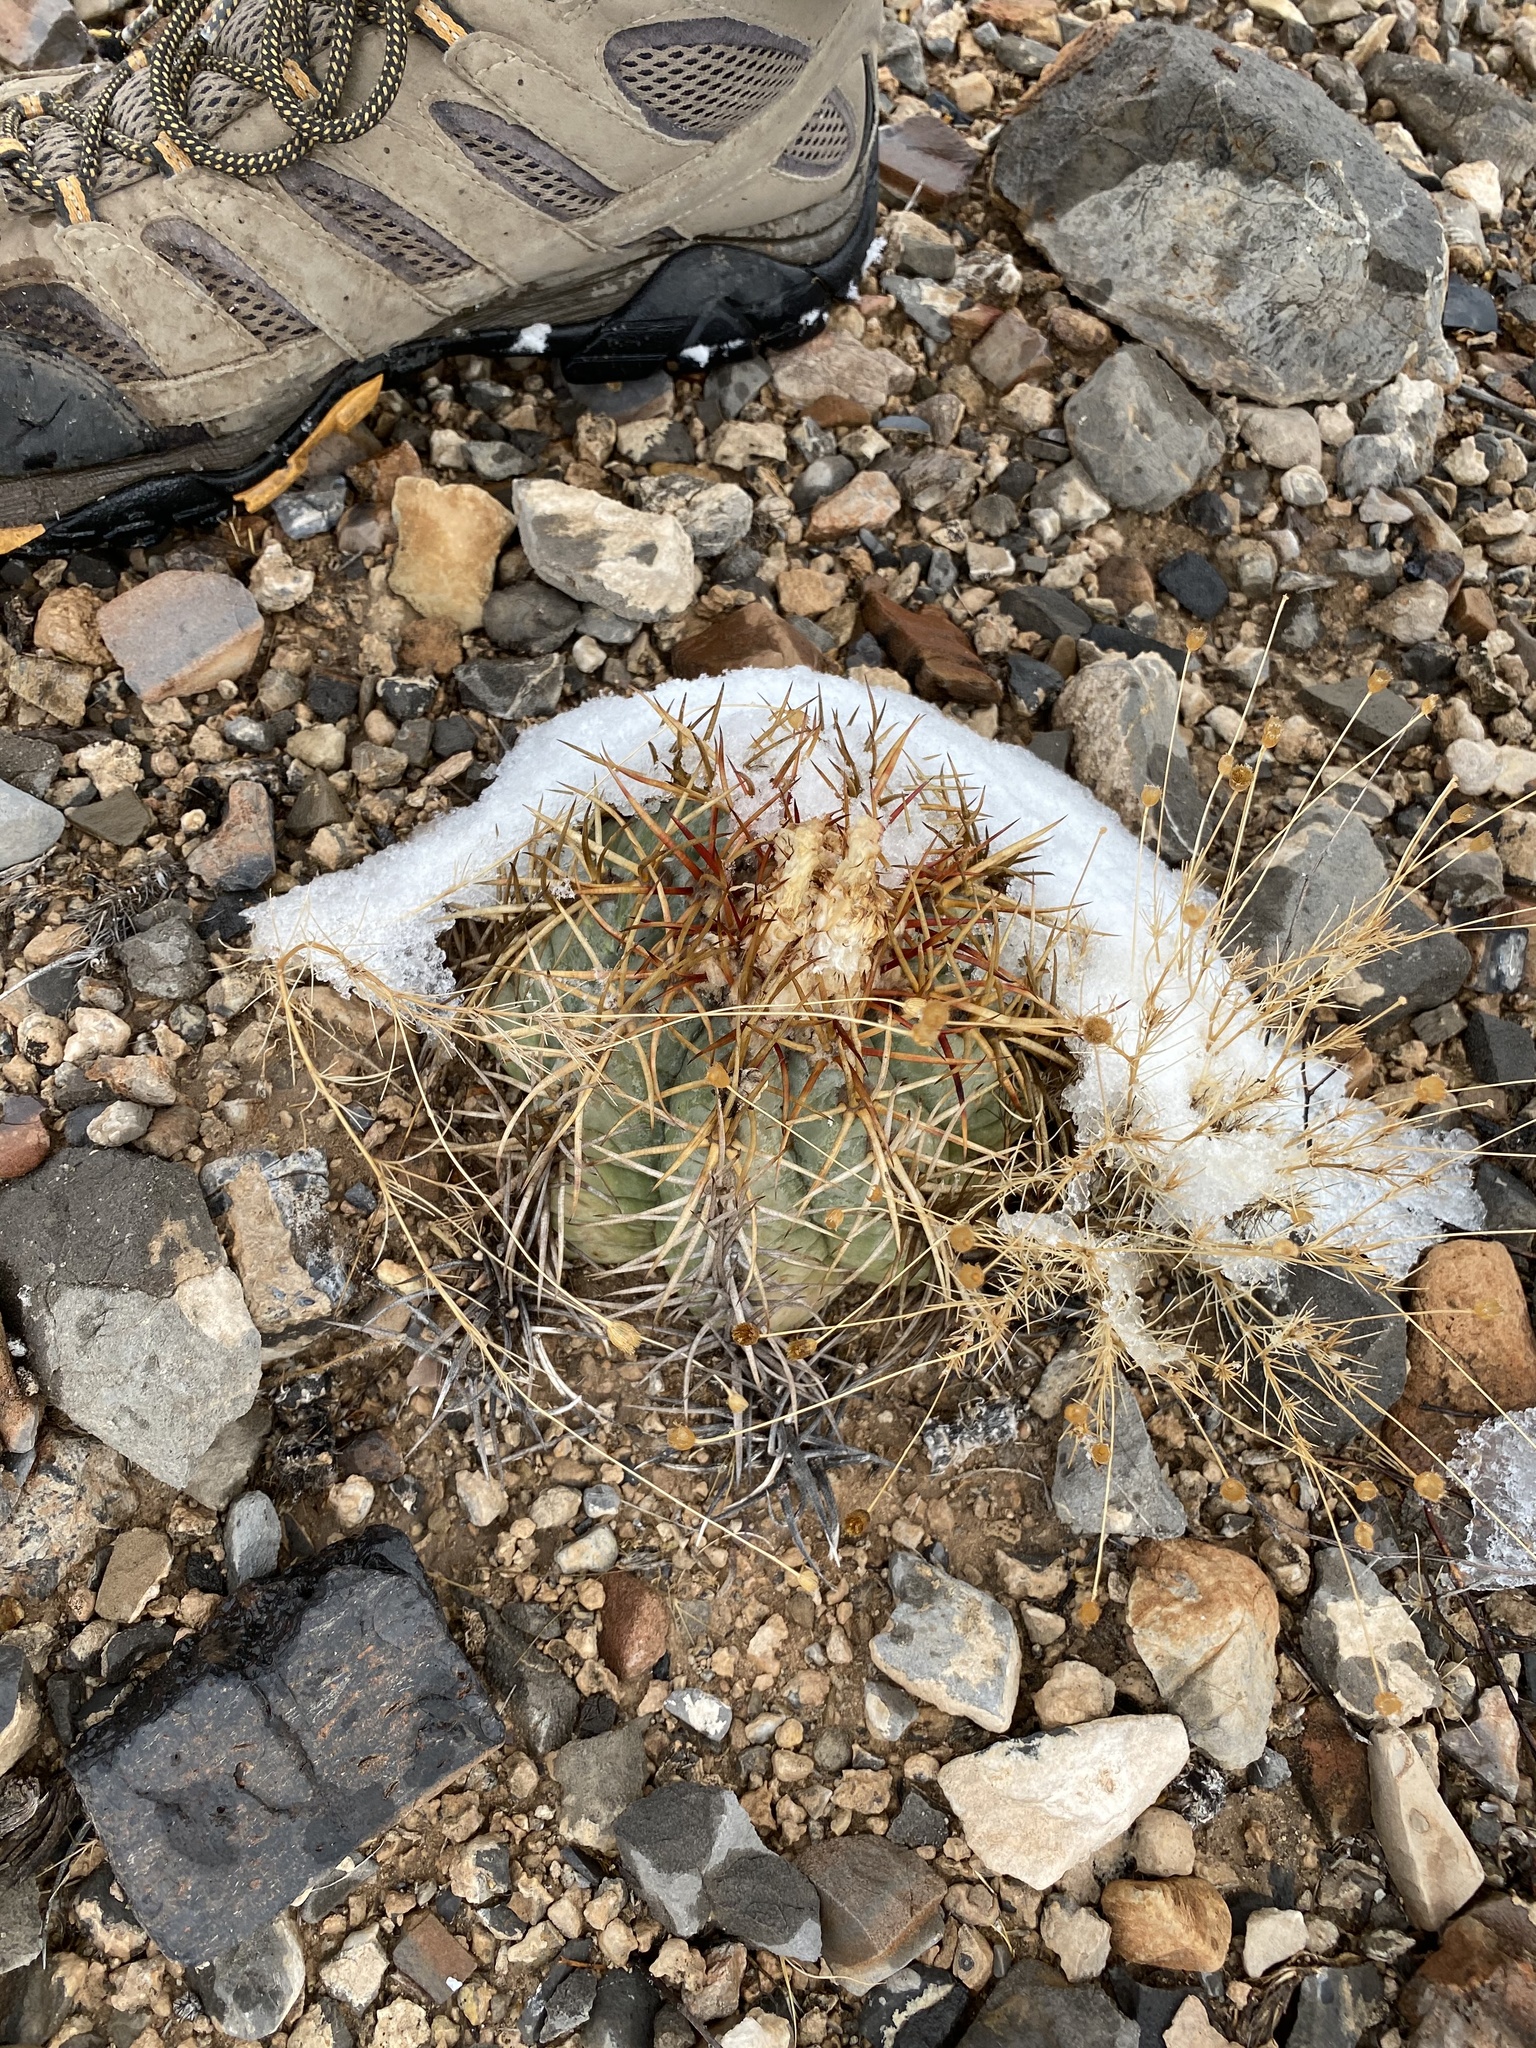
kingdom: Plantae
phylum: Tracheophyta
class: Magnoliopsida
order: Caryophyllales
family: Cactaceae
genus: Echinocactus
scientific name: Echinocactus horizonthalonius
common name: Devilshead
